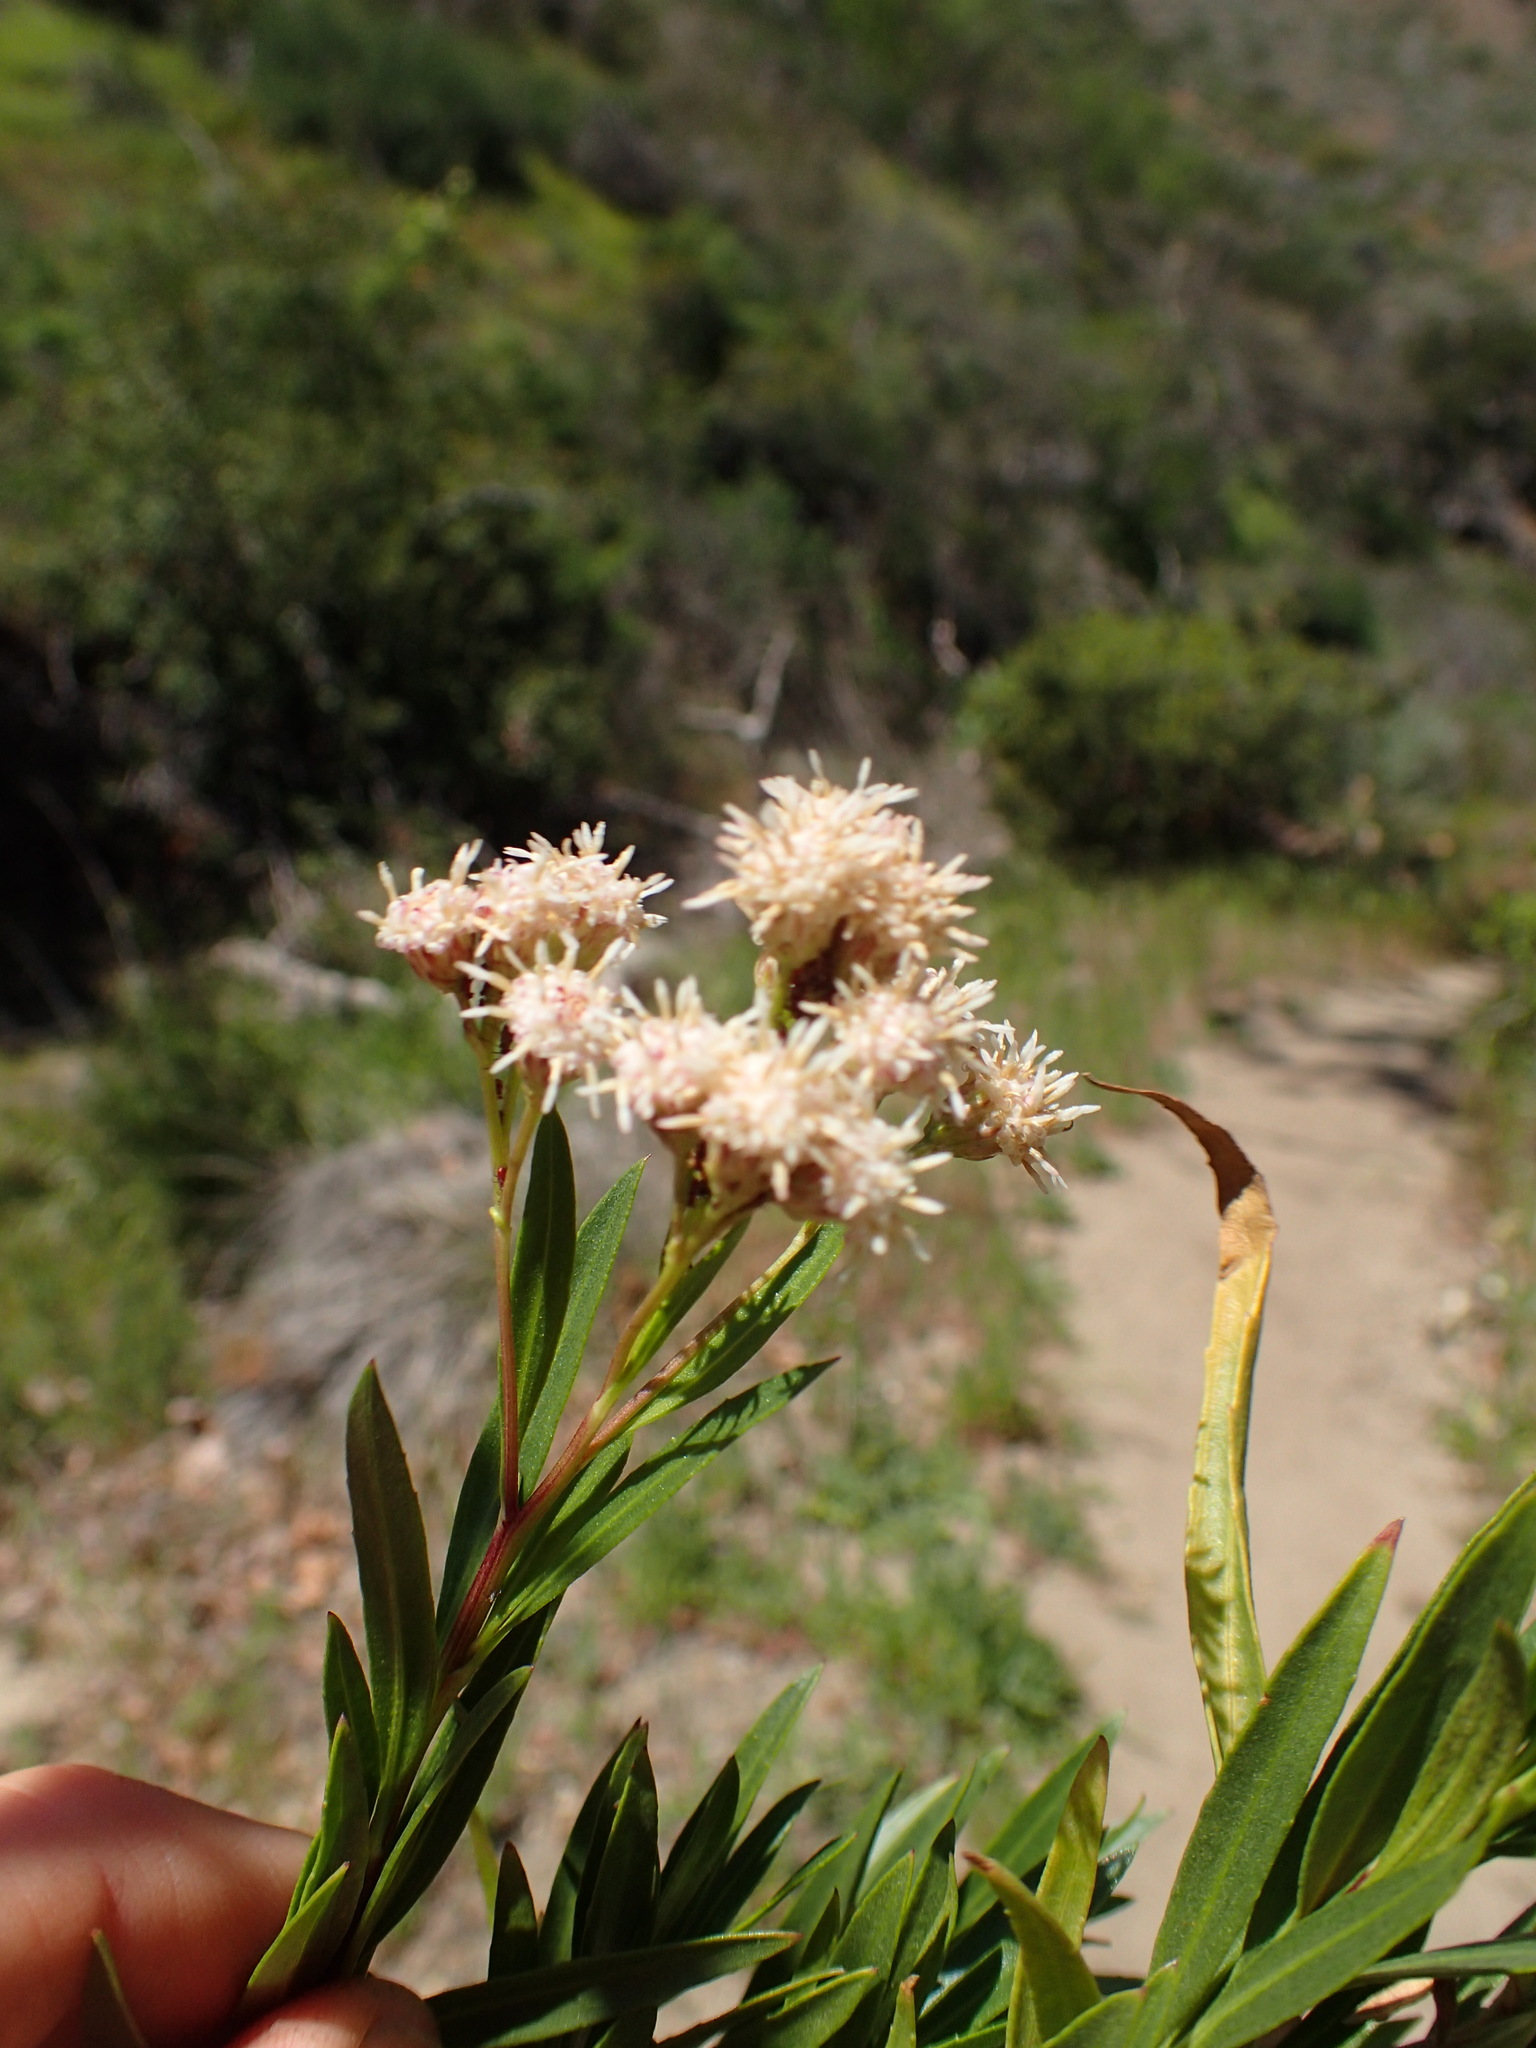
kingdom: Plantae
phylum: Tracheophyta
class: Magnoliopsida
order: Asterales
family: Asteraceae
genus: Baccharis
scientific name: Baccharis salicifolia
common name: Sticky baccharis
